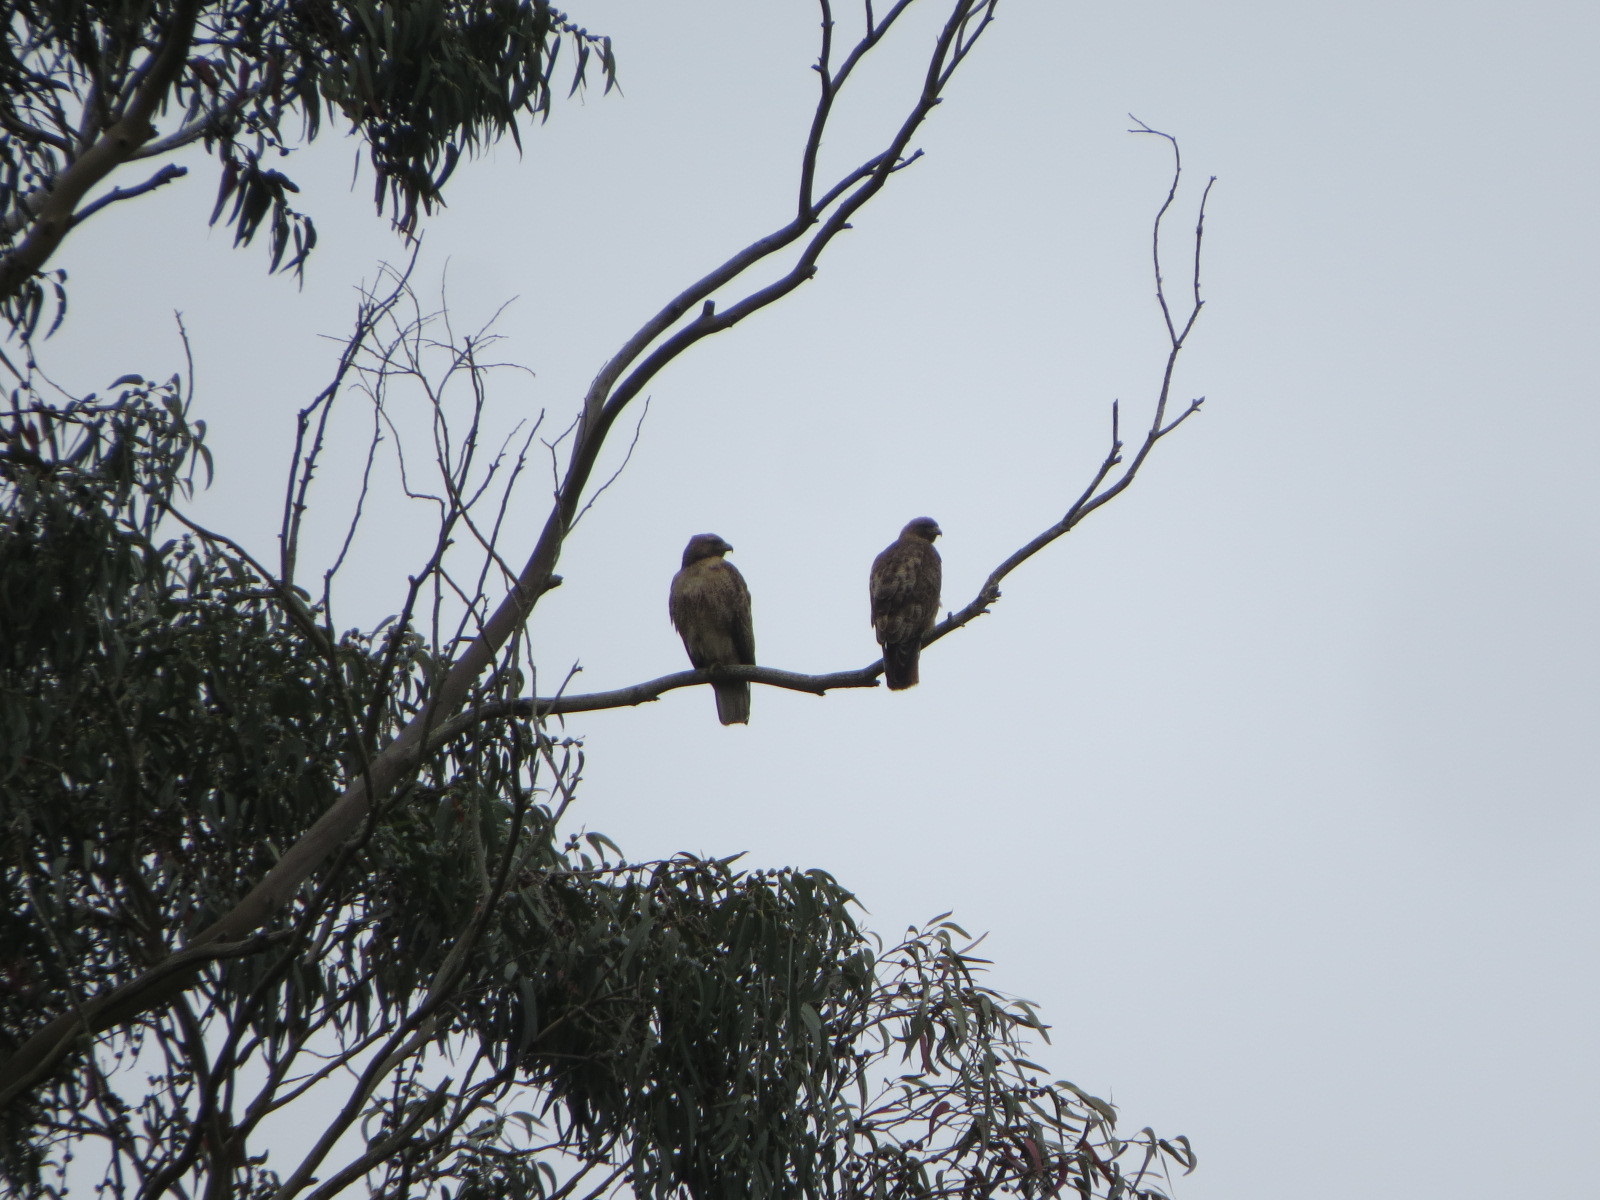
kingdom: Animalia
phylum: Chordata
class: Aves
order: Accipitriformes
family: Accipitridae
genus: Buteo
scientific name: Buteo jamaicensis
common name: Red-tailed hawk
